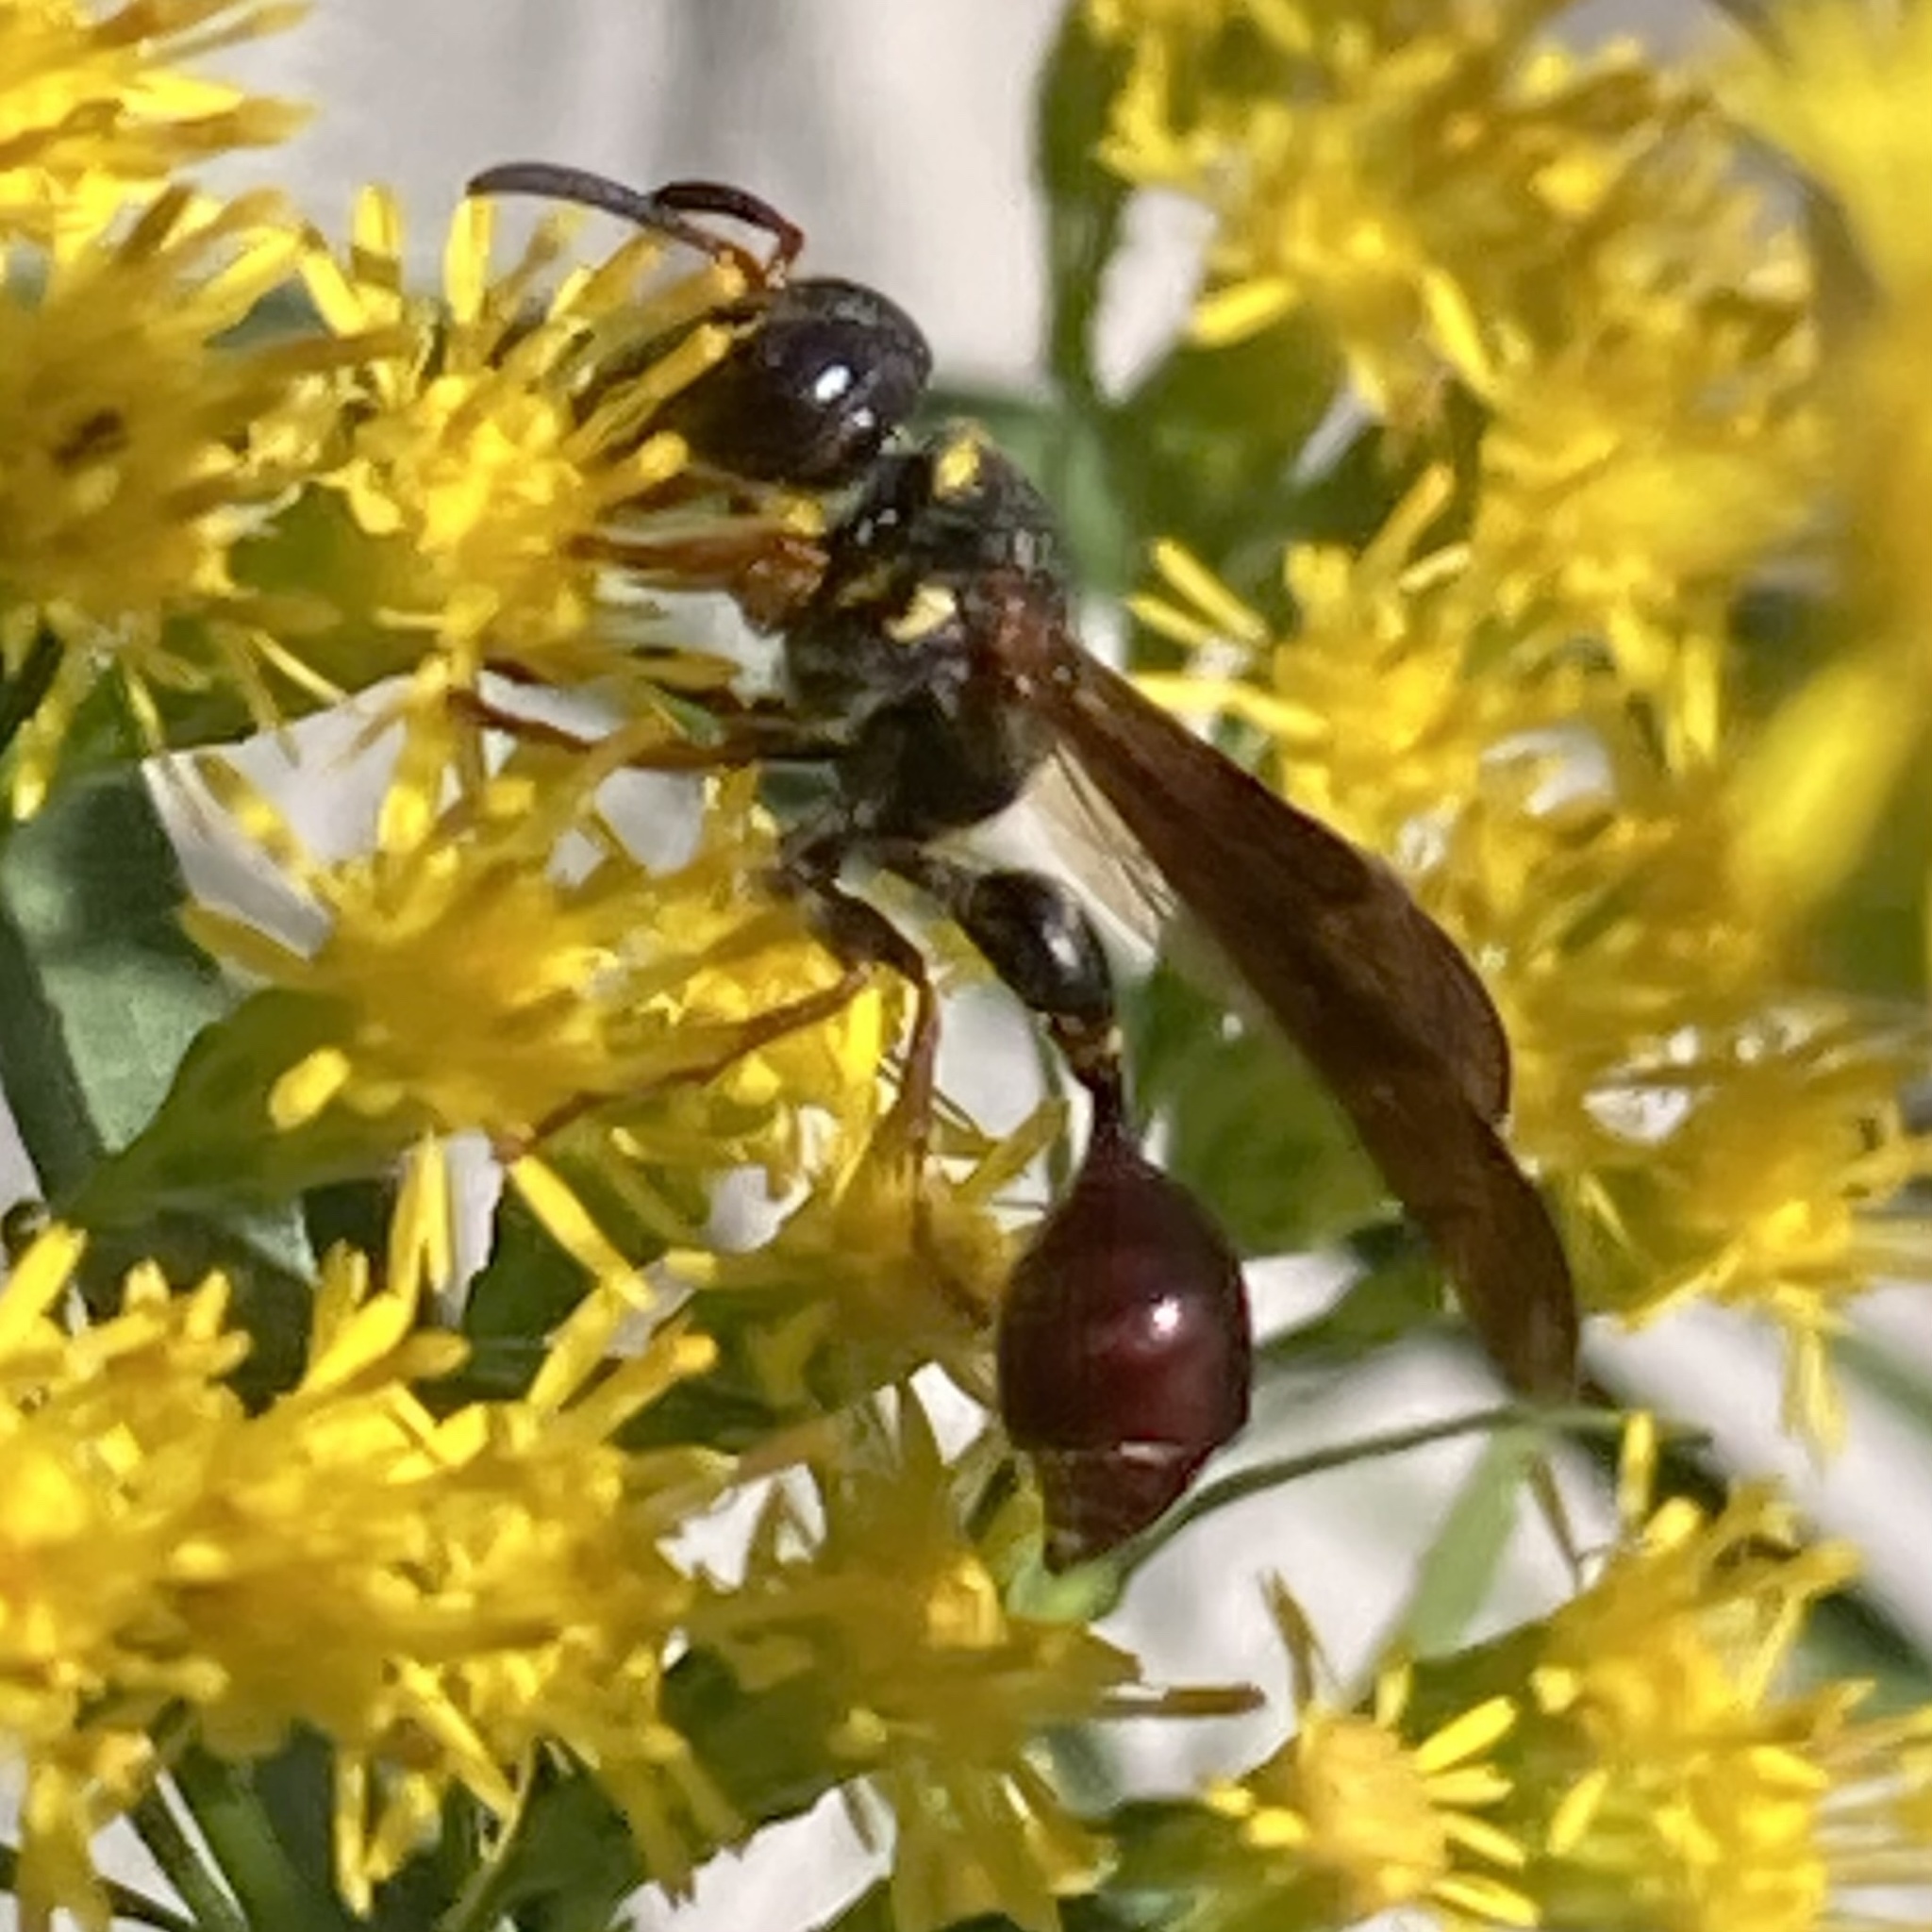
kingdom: Animalia
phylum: Arthropoda
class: Insecta
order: Hymenoptera
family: Eumenidae
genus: Zethus
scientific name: Zethus slossonae
